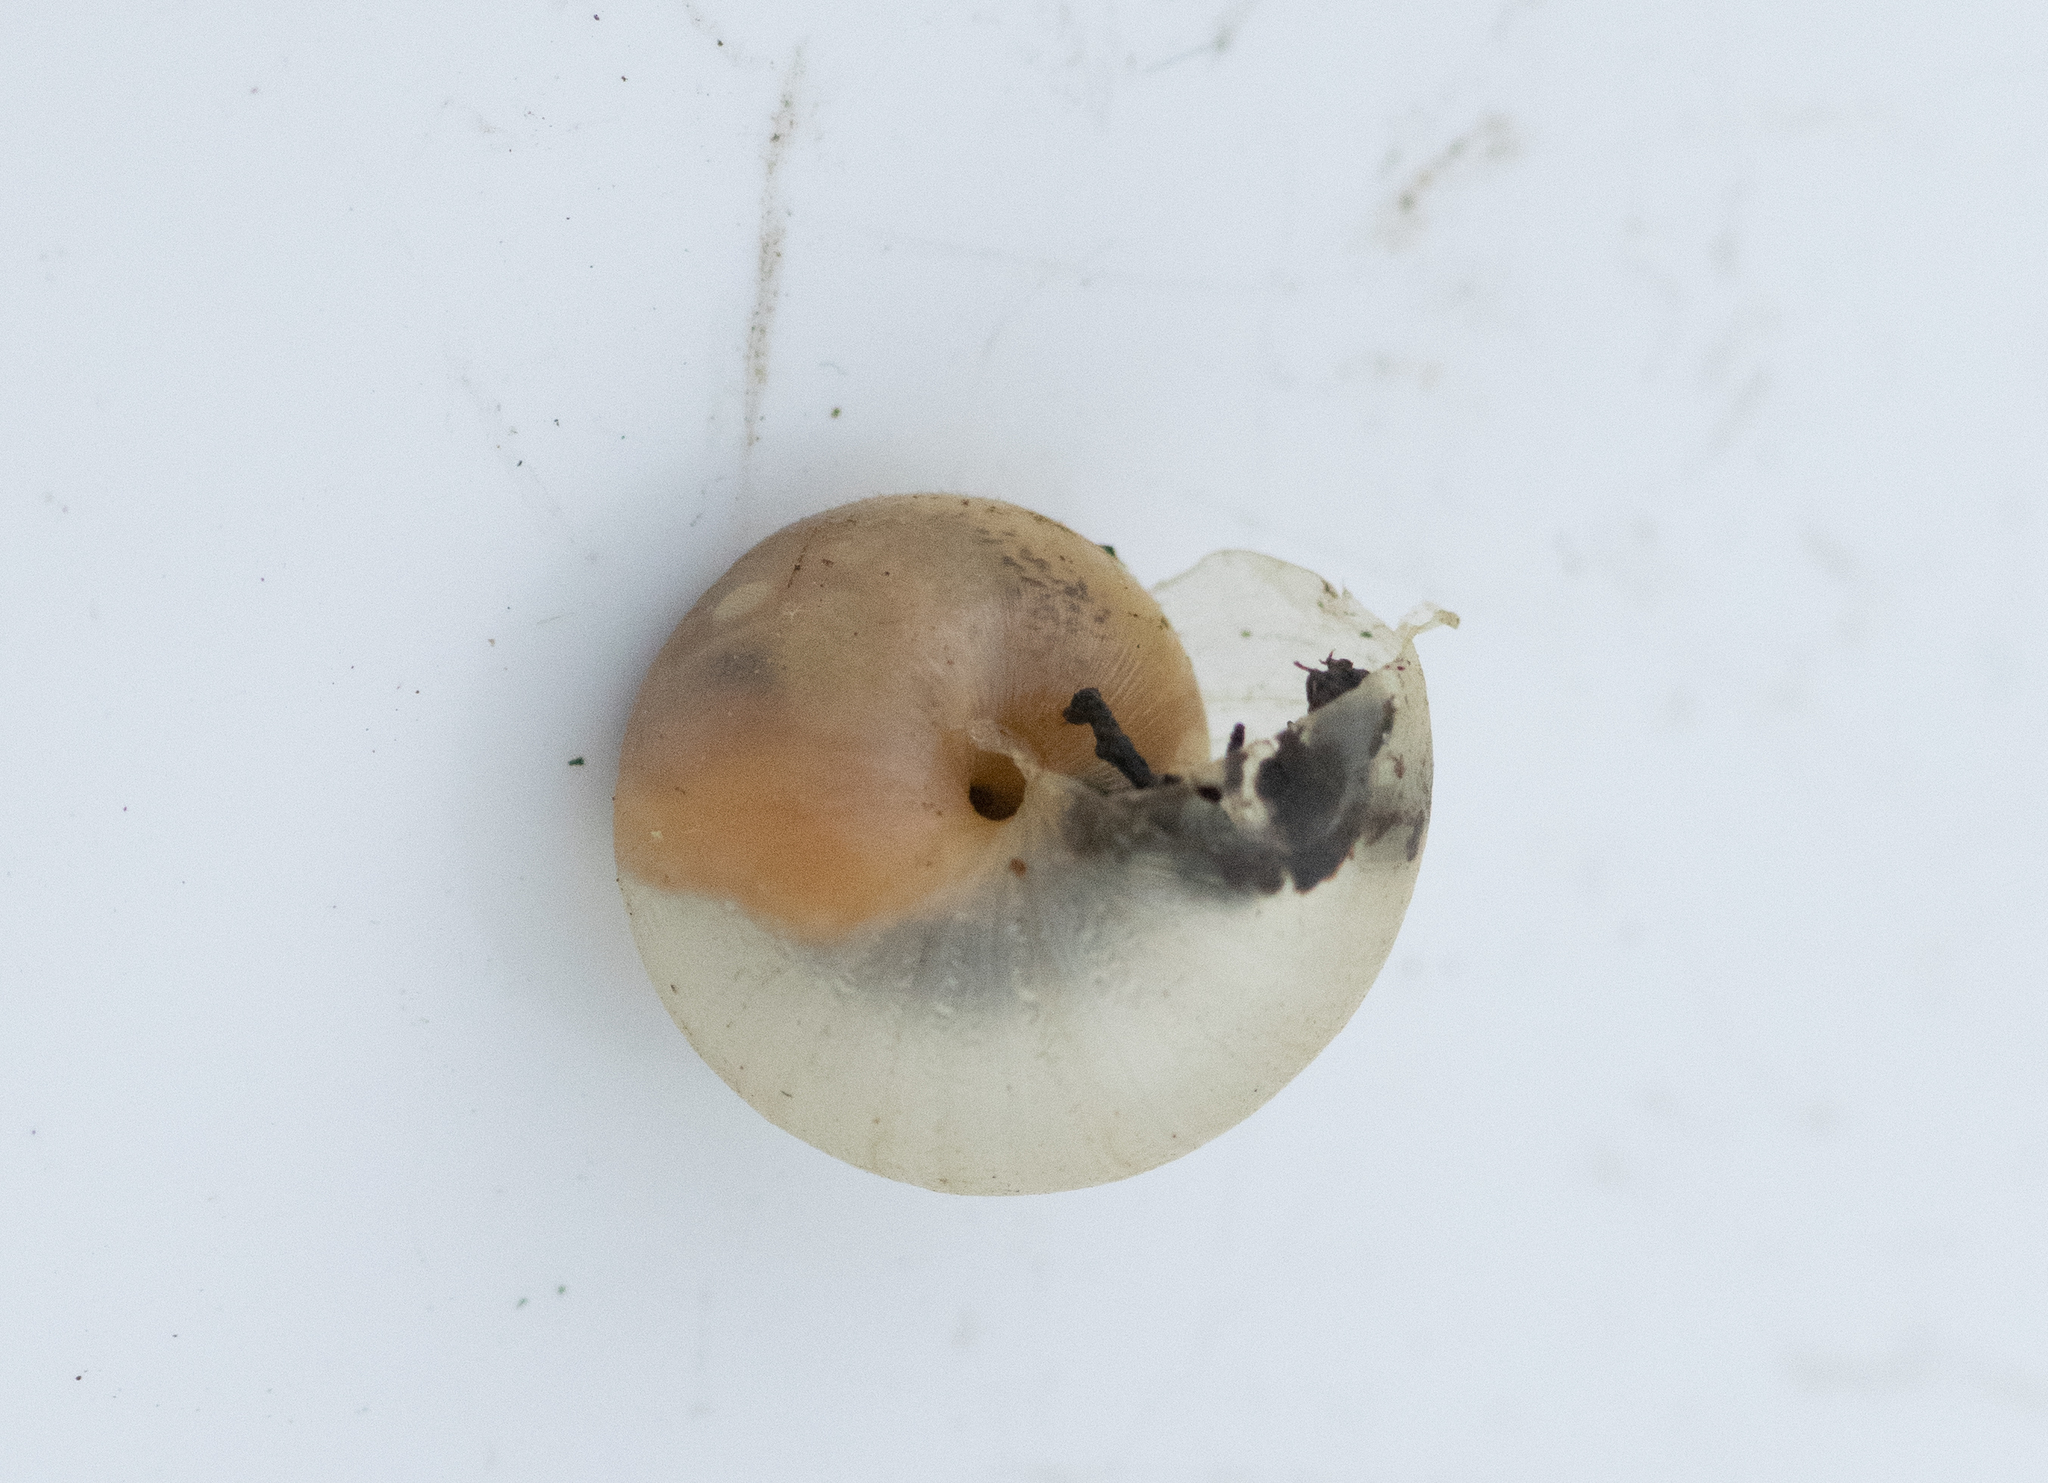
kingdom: Animalia
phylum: Mollusca
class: Gastropoda
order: Stylommatophora
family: Hygromiidae
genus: Monacha
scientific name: Monacha cantiana
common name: Kentish snail
